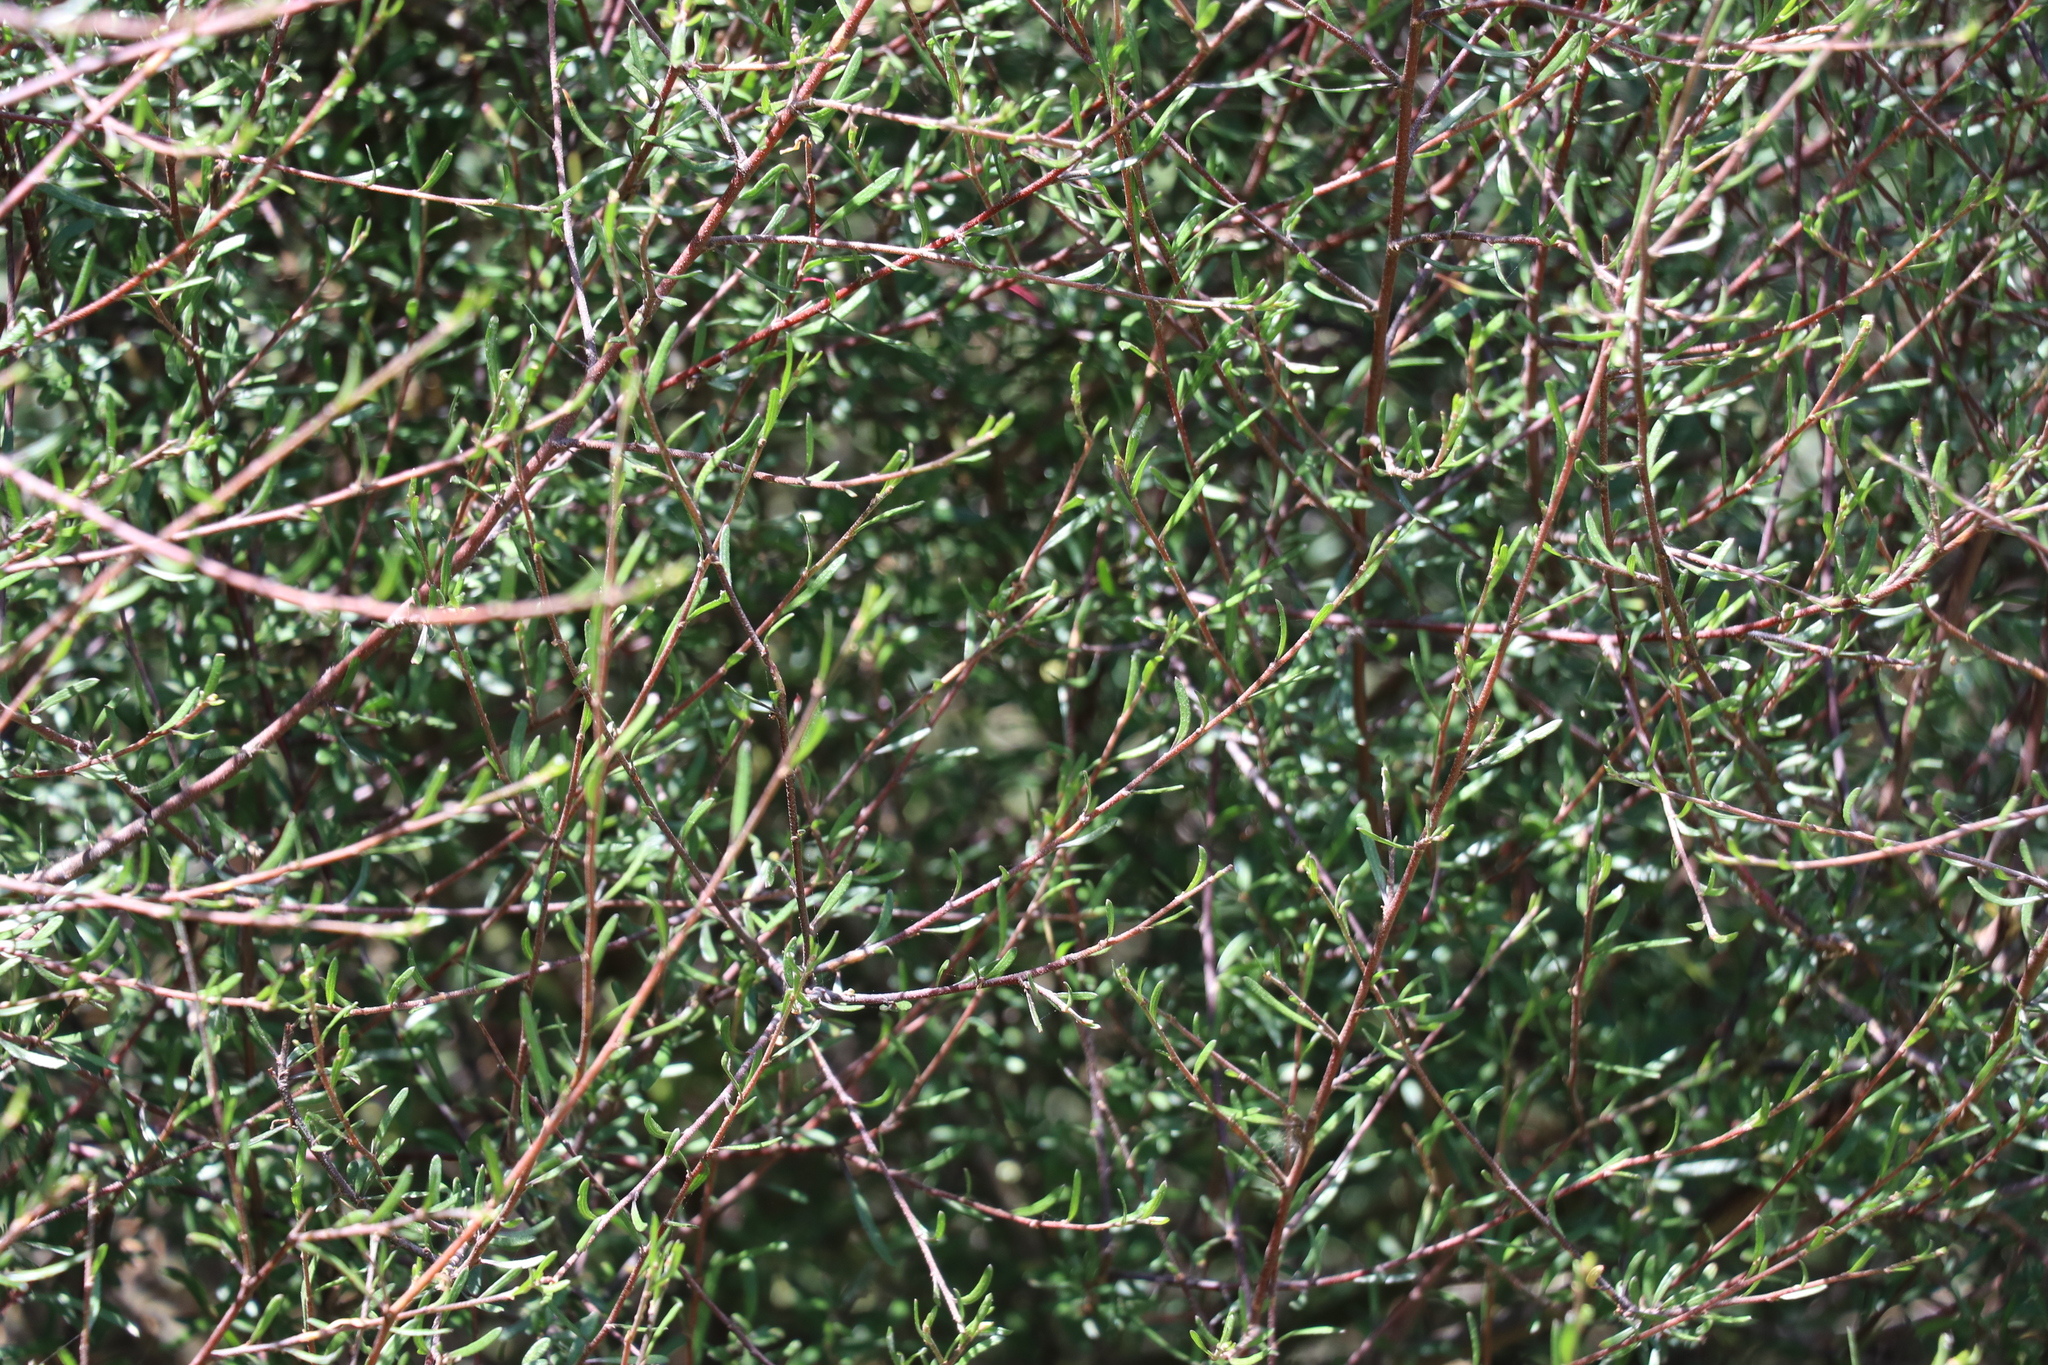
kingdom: Plantae
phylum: Tracheophyta
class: Magnoliopsida
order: Malvales
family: Malvaceae
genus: Plagianthus
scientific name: Plagianthus divaricatus
